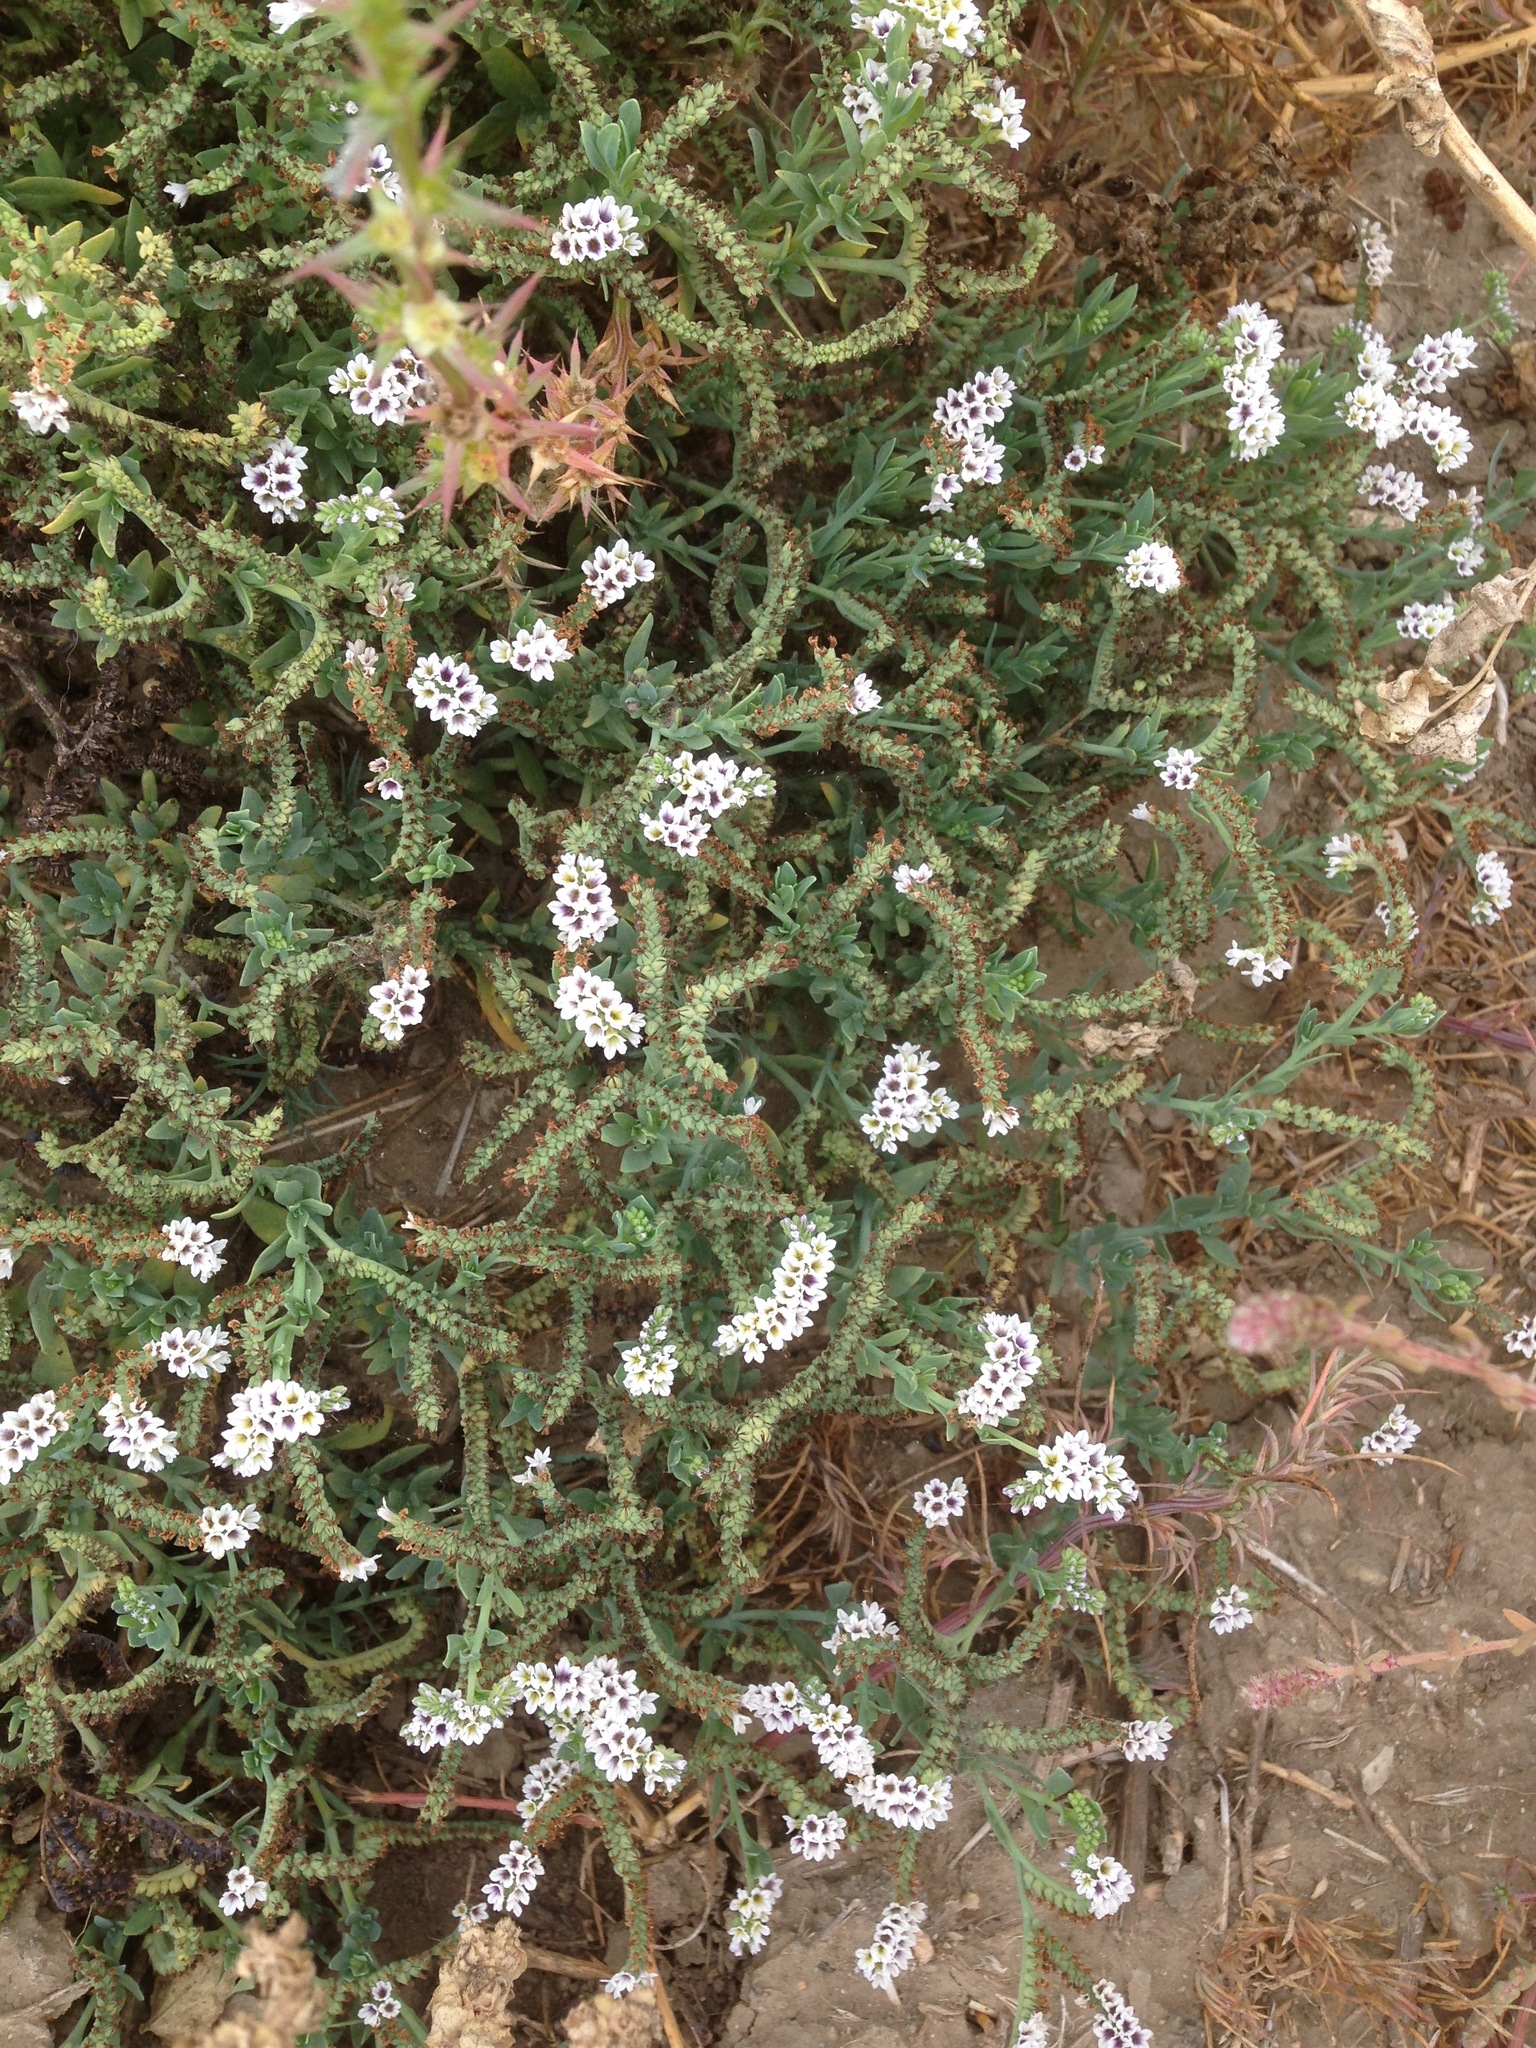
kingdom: Plantae
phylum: Tracheophyta
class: Magnoliopsida
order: Boraginales
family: Heliotropiaceae
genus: Heliotropium
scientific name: Heliotropium curassavicum
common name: Seaside heliotrope
